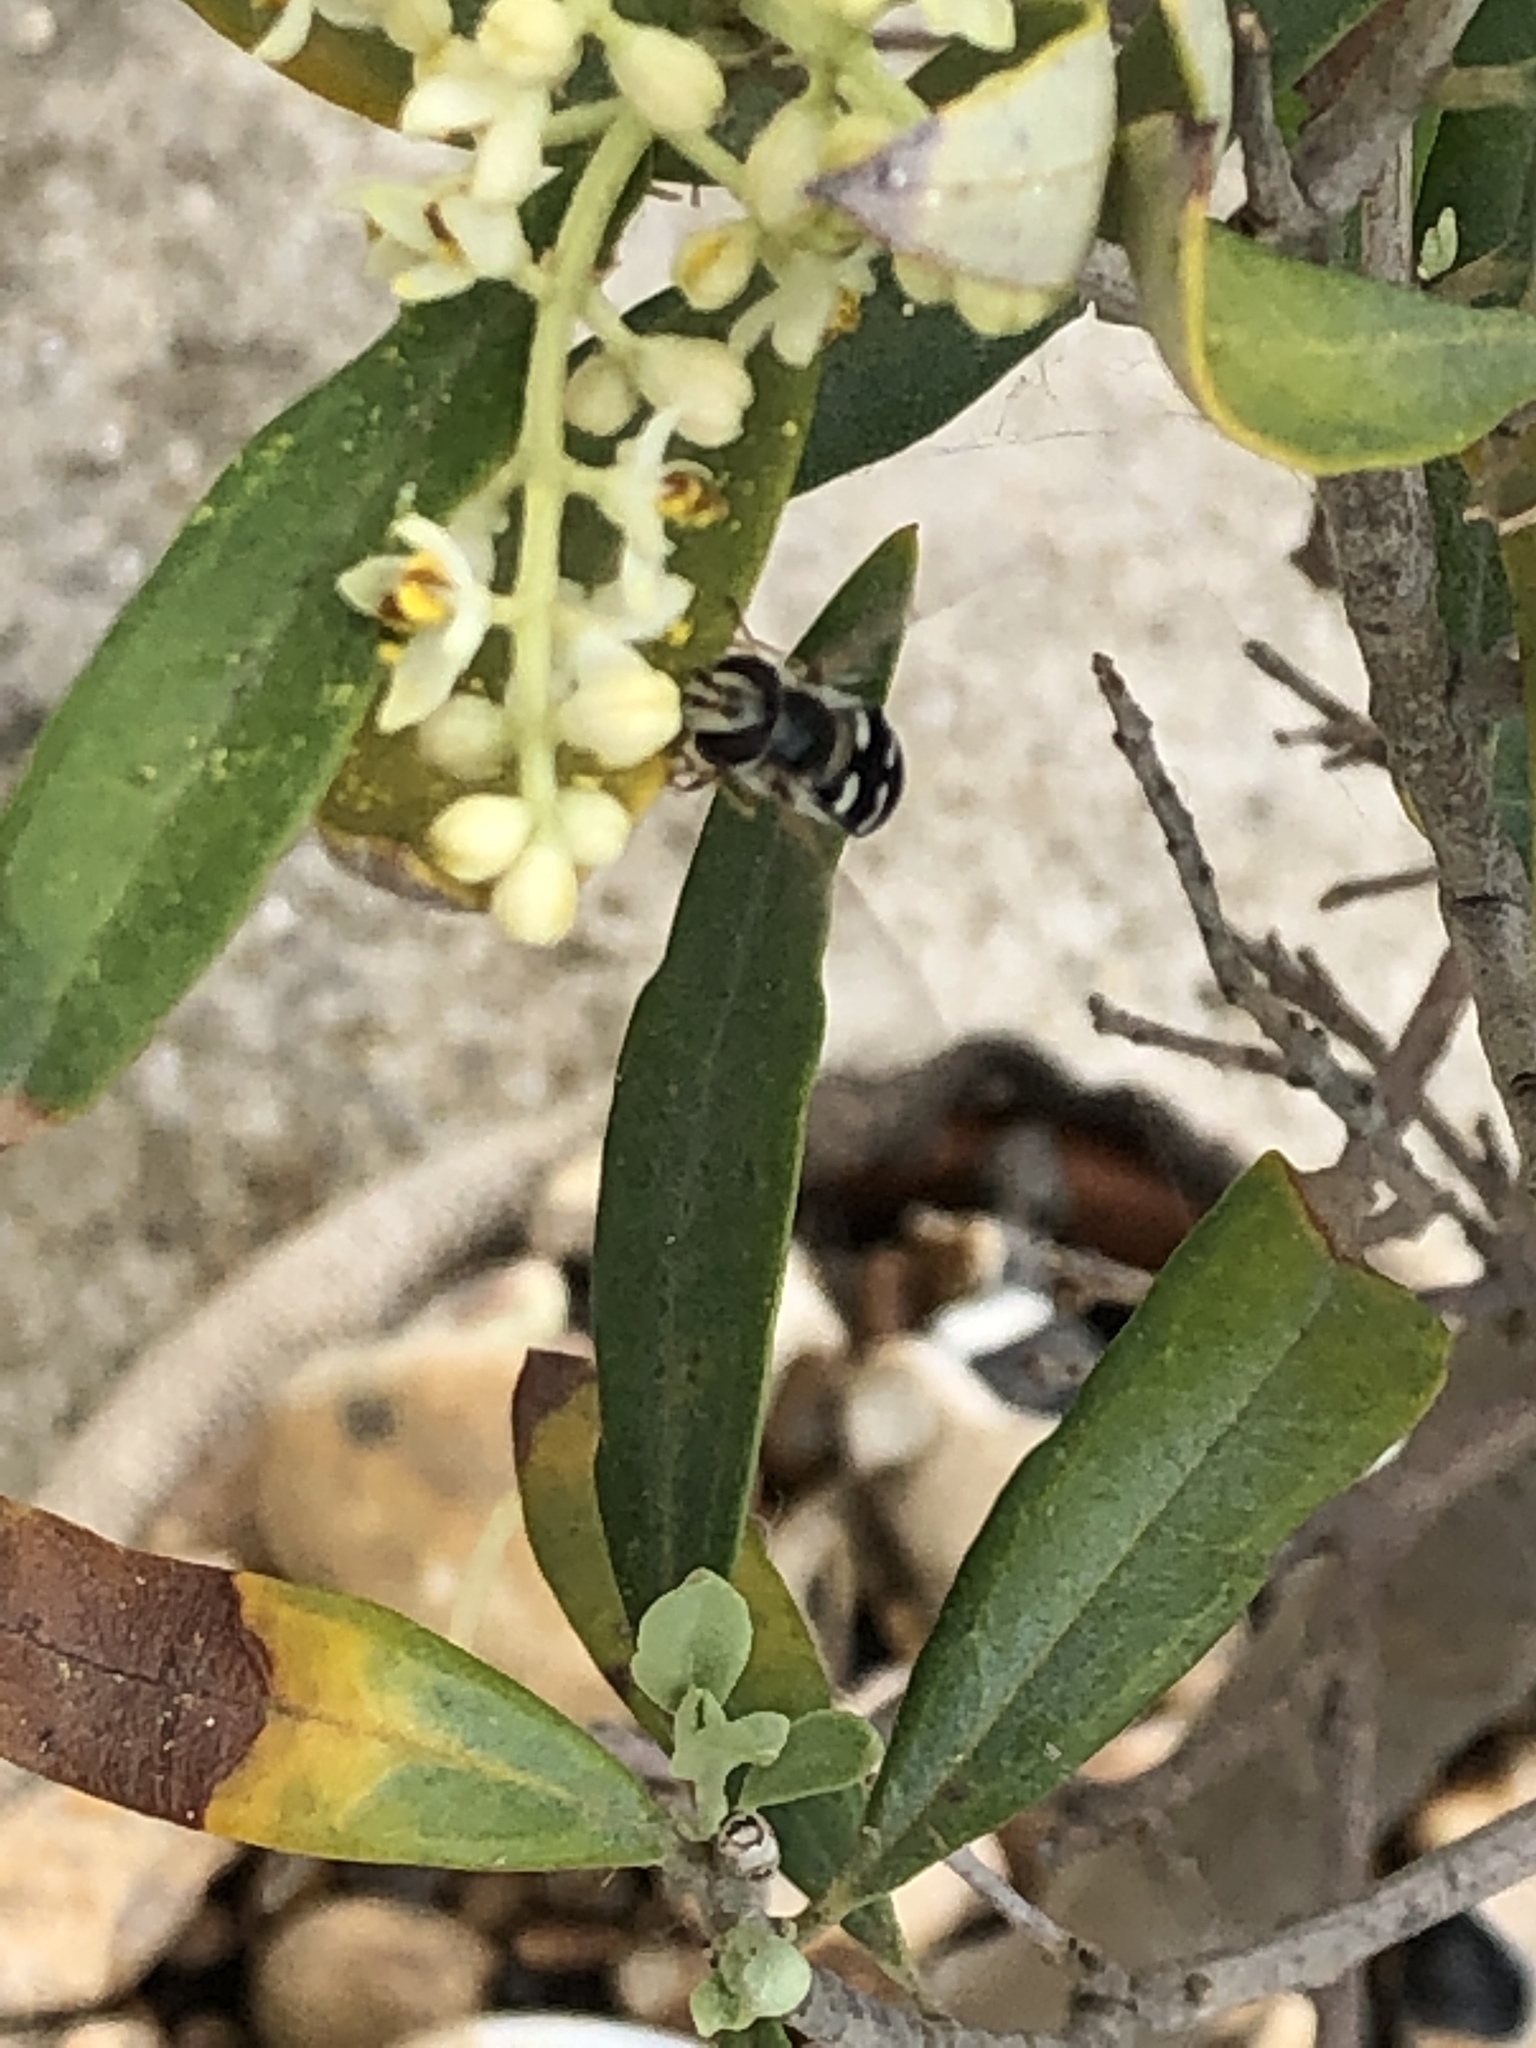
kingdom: Animalia
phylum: Arthropoda
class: Insecta
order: Diptera
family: Syrphidae
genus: Scaeva
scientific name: Scaeva pyrastri
